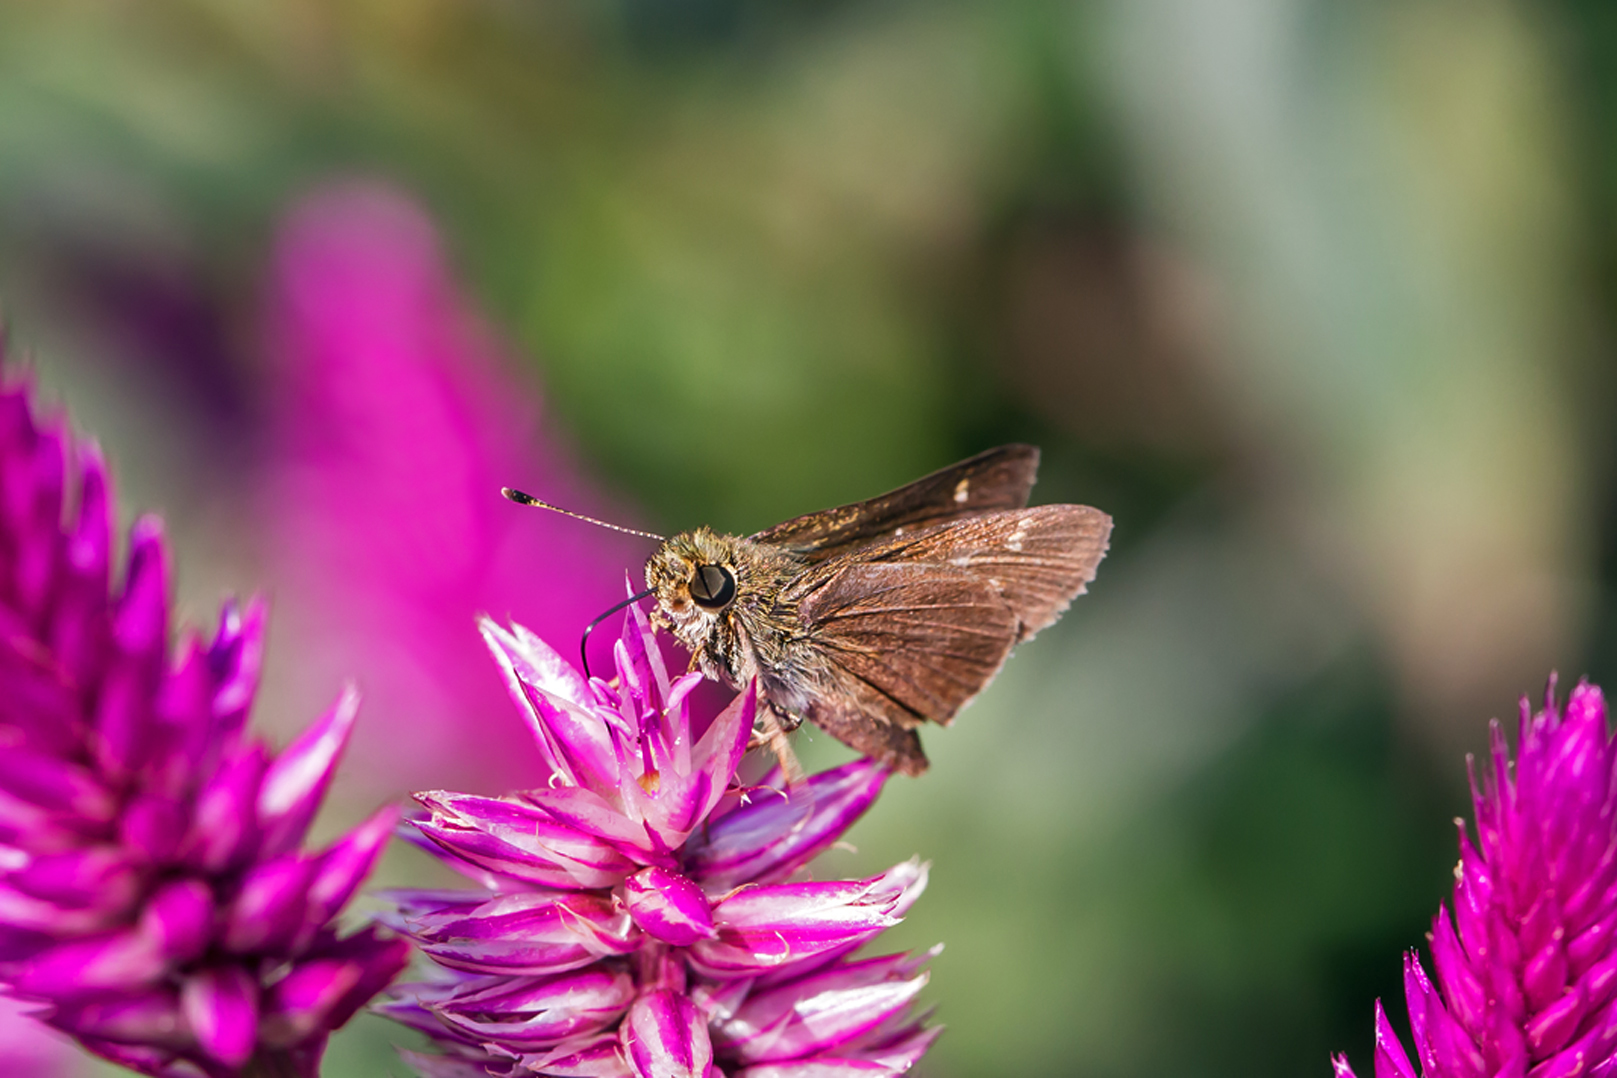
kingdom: Animalia
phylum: Arthropoda
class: Insecta
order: Lepidoptera
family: Hesperiidae
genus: Vernia
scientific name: Vernia verna
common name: Little glassywing
